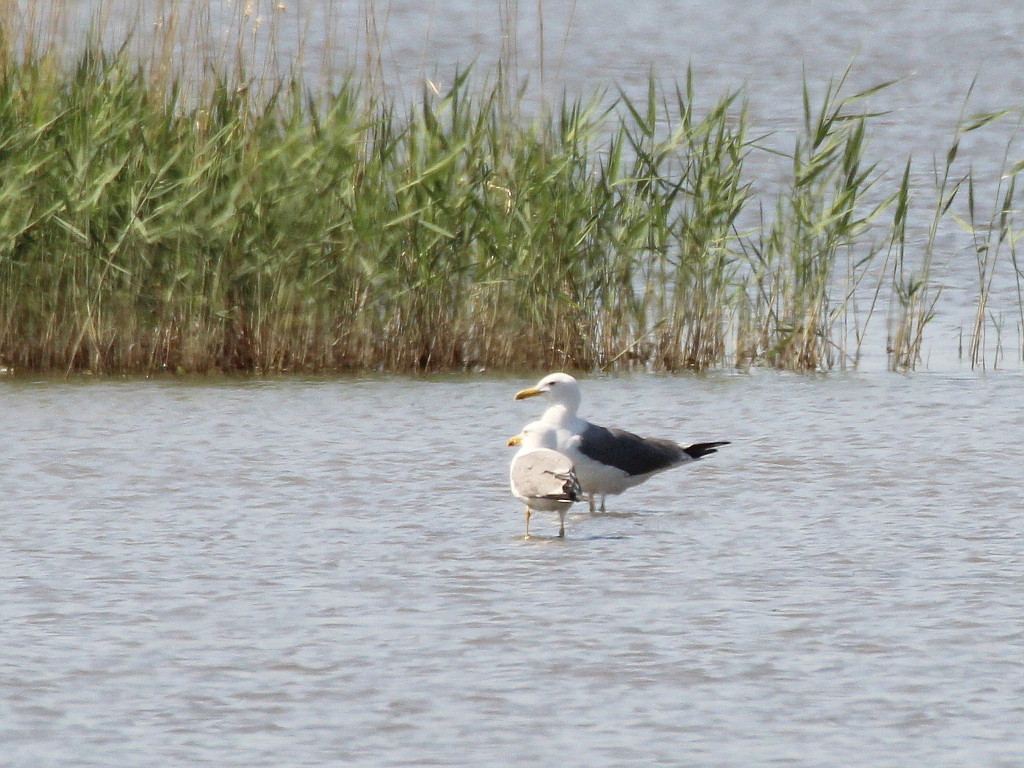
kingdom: Animalia
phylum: Chordata
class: Aves
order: Charadriiformes
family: Laridae
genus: Larus
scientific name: Larus fuscus
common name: Lesser black-backed gull
